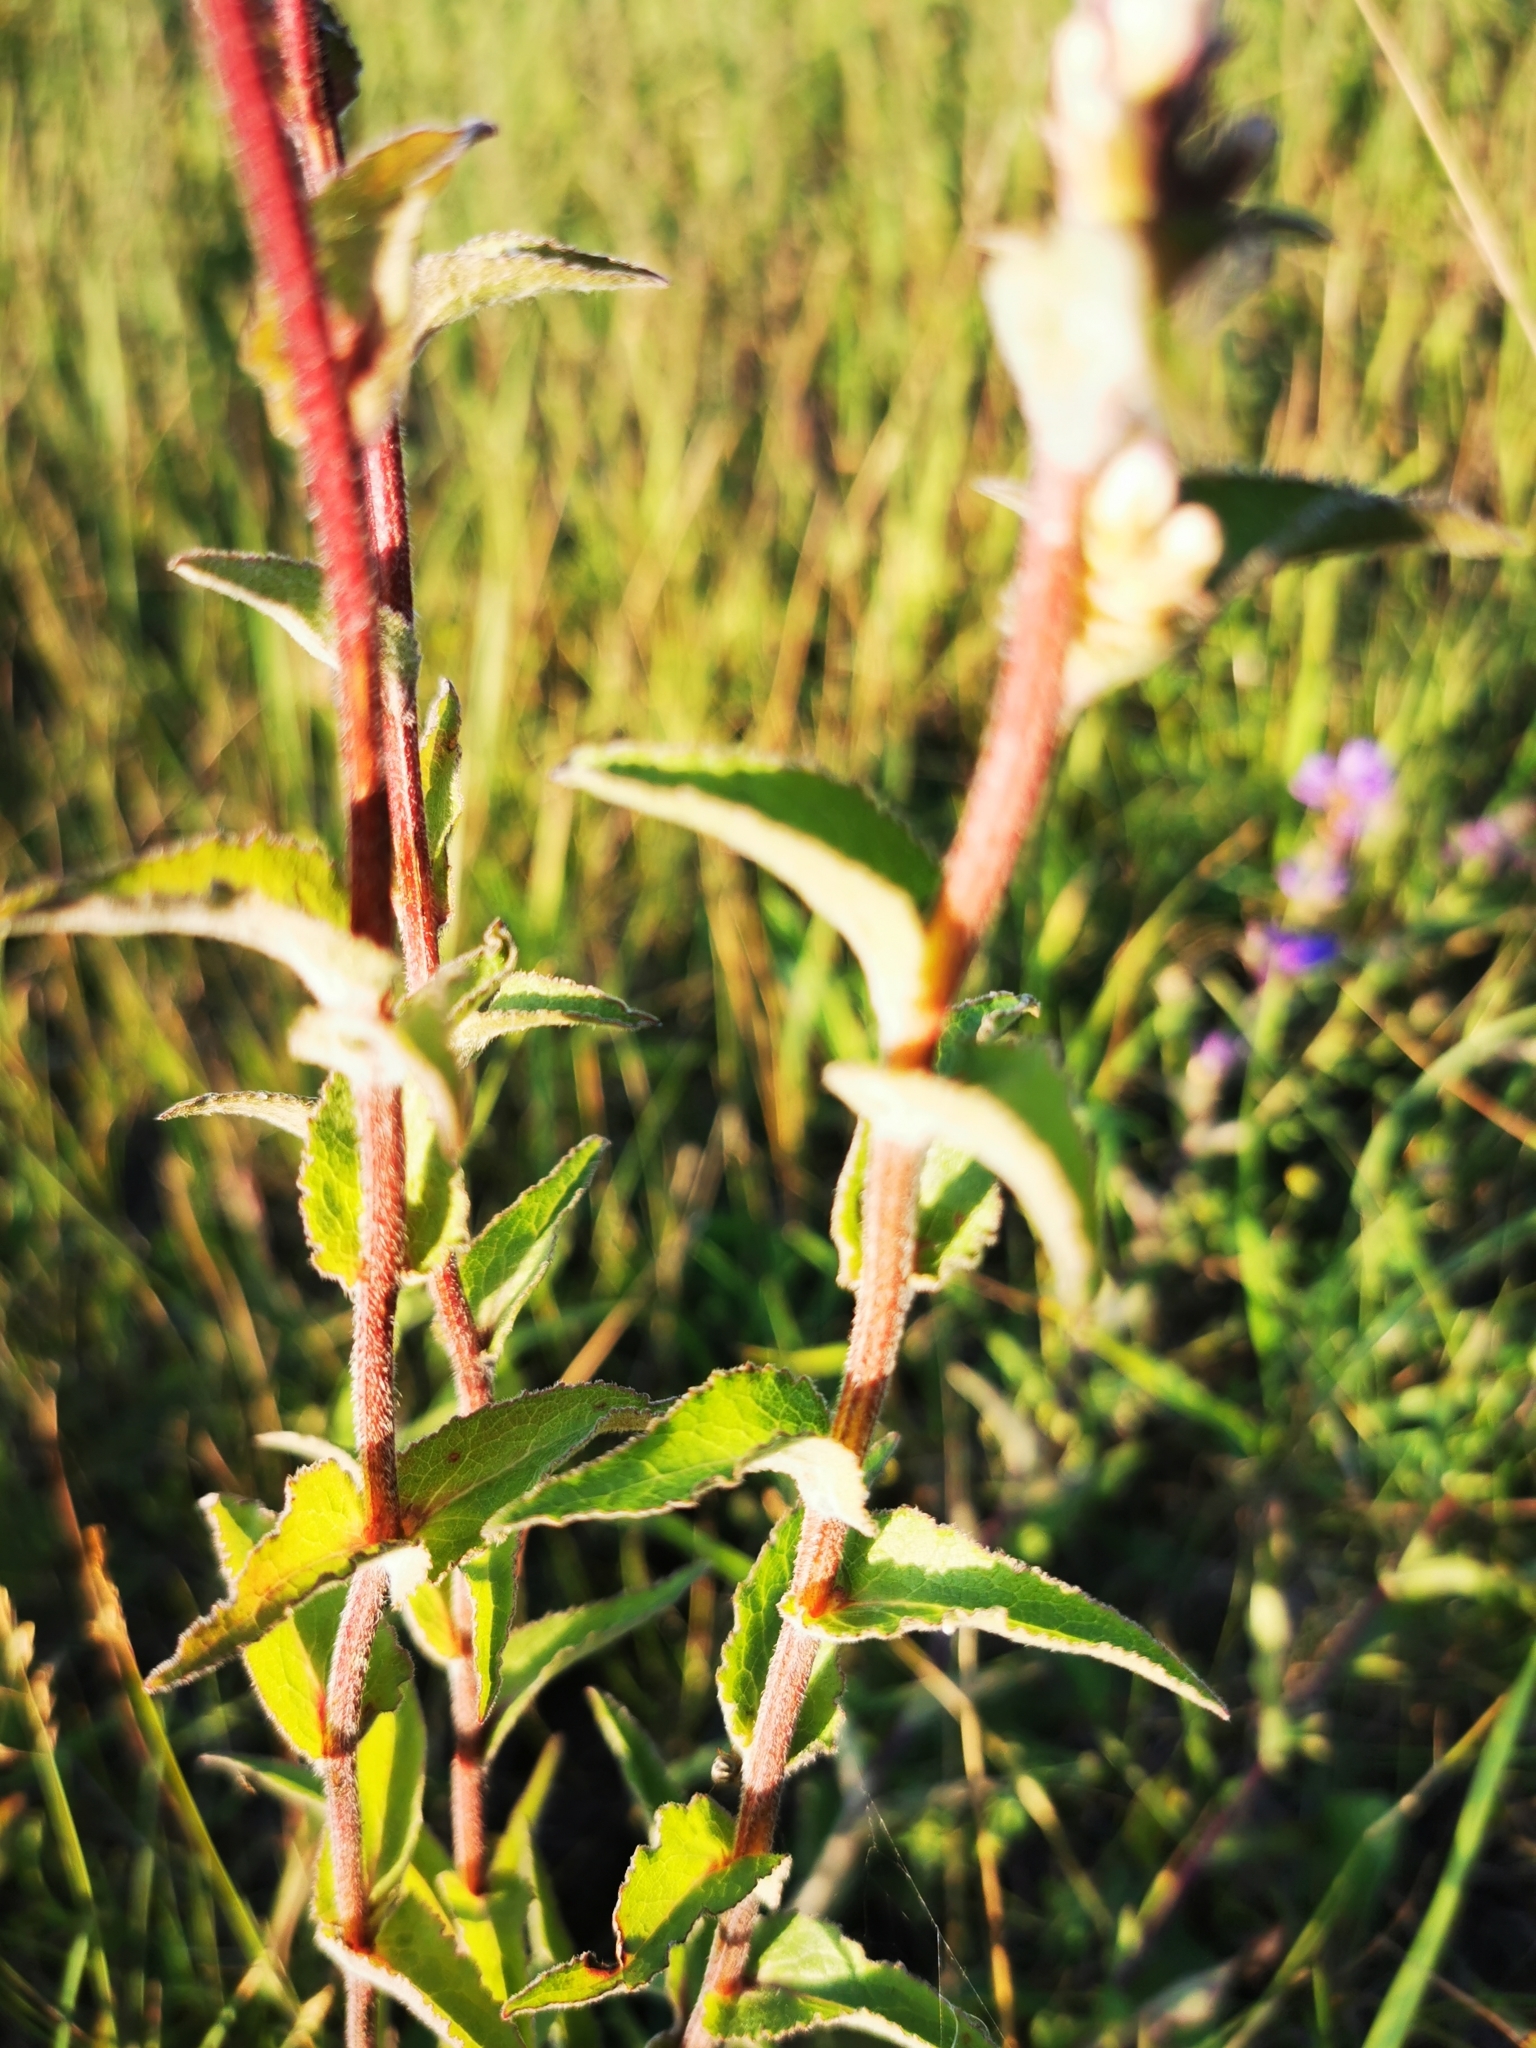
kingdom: Plantae
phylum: Tracheophyta
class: Magnoliopsida
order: Asterales
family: Campanulaceae
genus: Campanula
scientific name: Campanula glomerata
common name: Clustered bellflower
